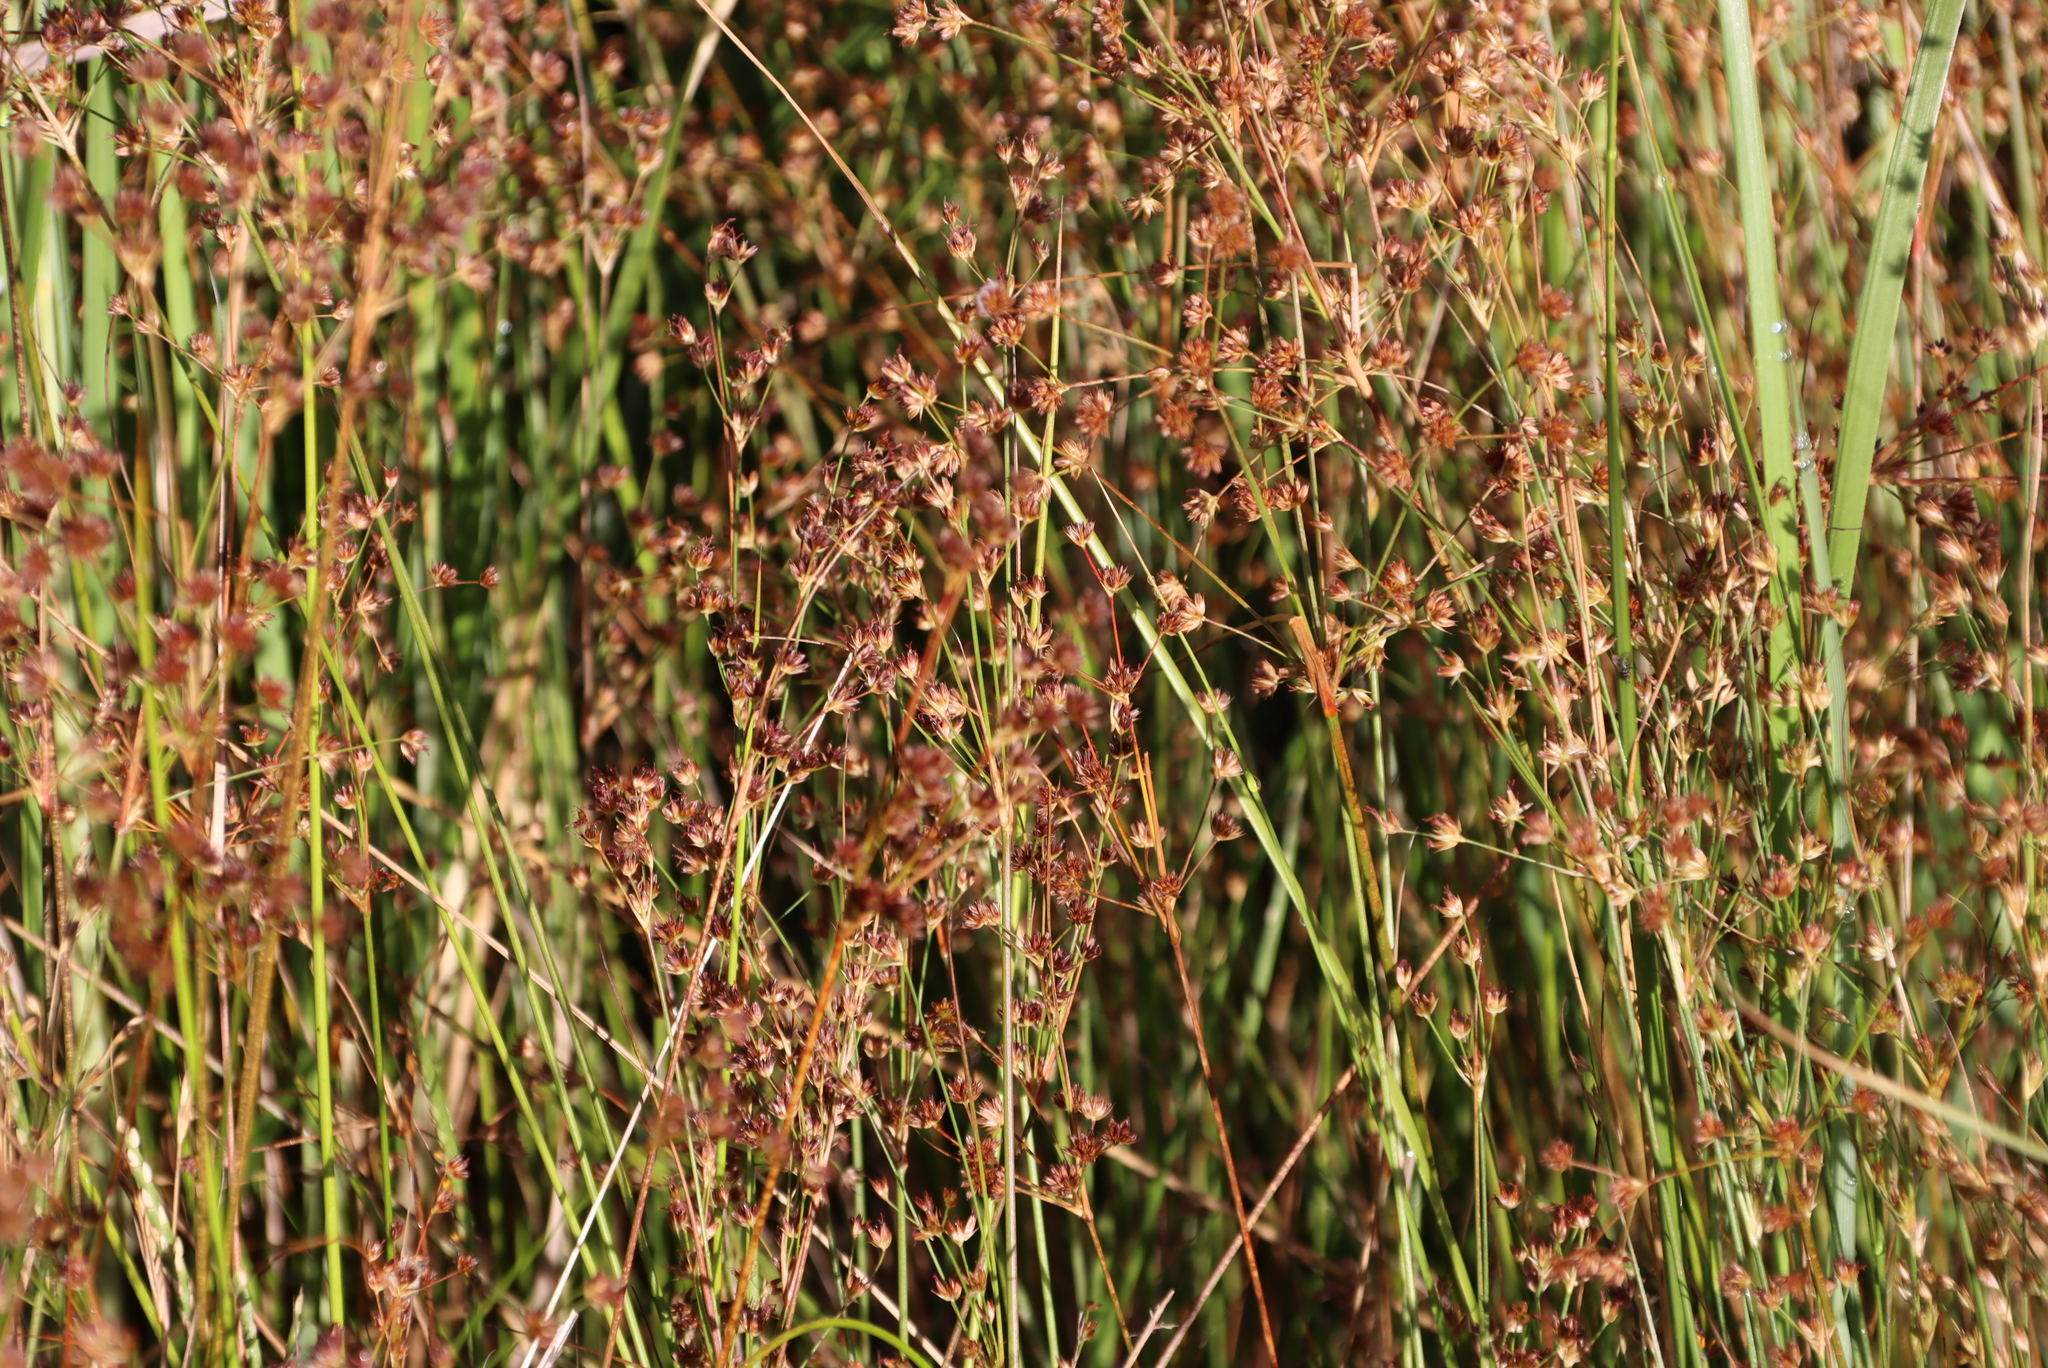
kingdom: Plantae
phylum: Tracheophyta
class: Liliopsida
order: Poales
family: Juncaceae
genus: Juncus
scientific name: Juncus capensis
